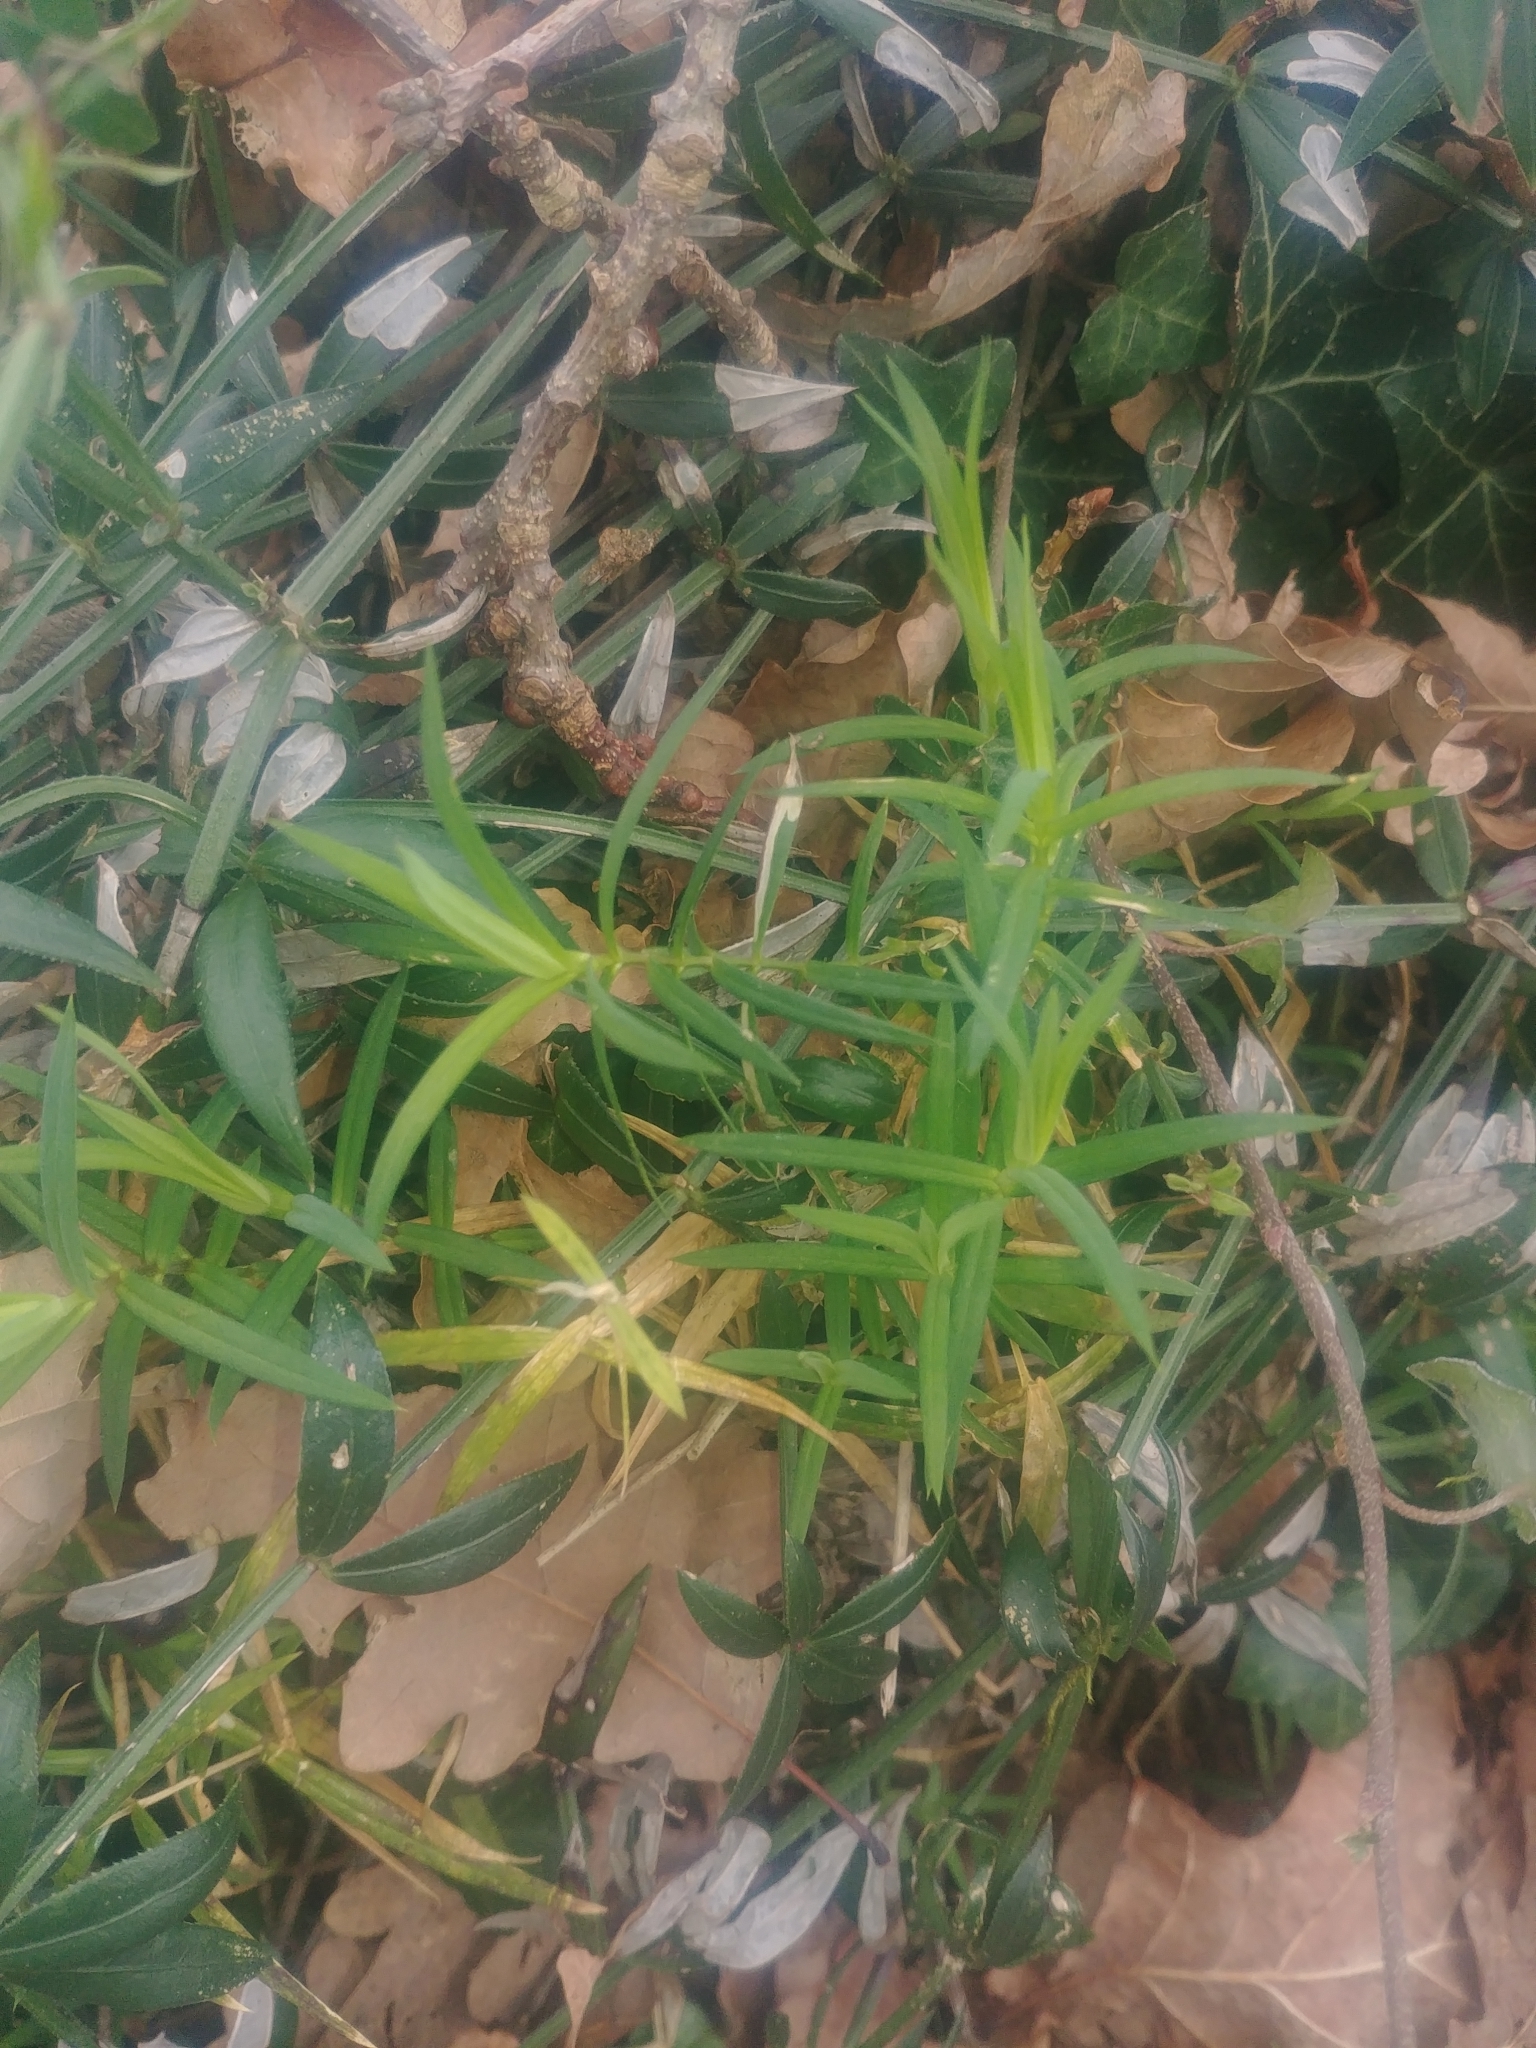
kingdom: Plantae
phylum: Tracheophyta
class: Magnoliopsida
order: Caryophyllales
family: Caryophyllaceae
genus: Rabelera
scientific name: Rabelera holostea
